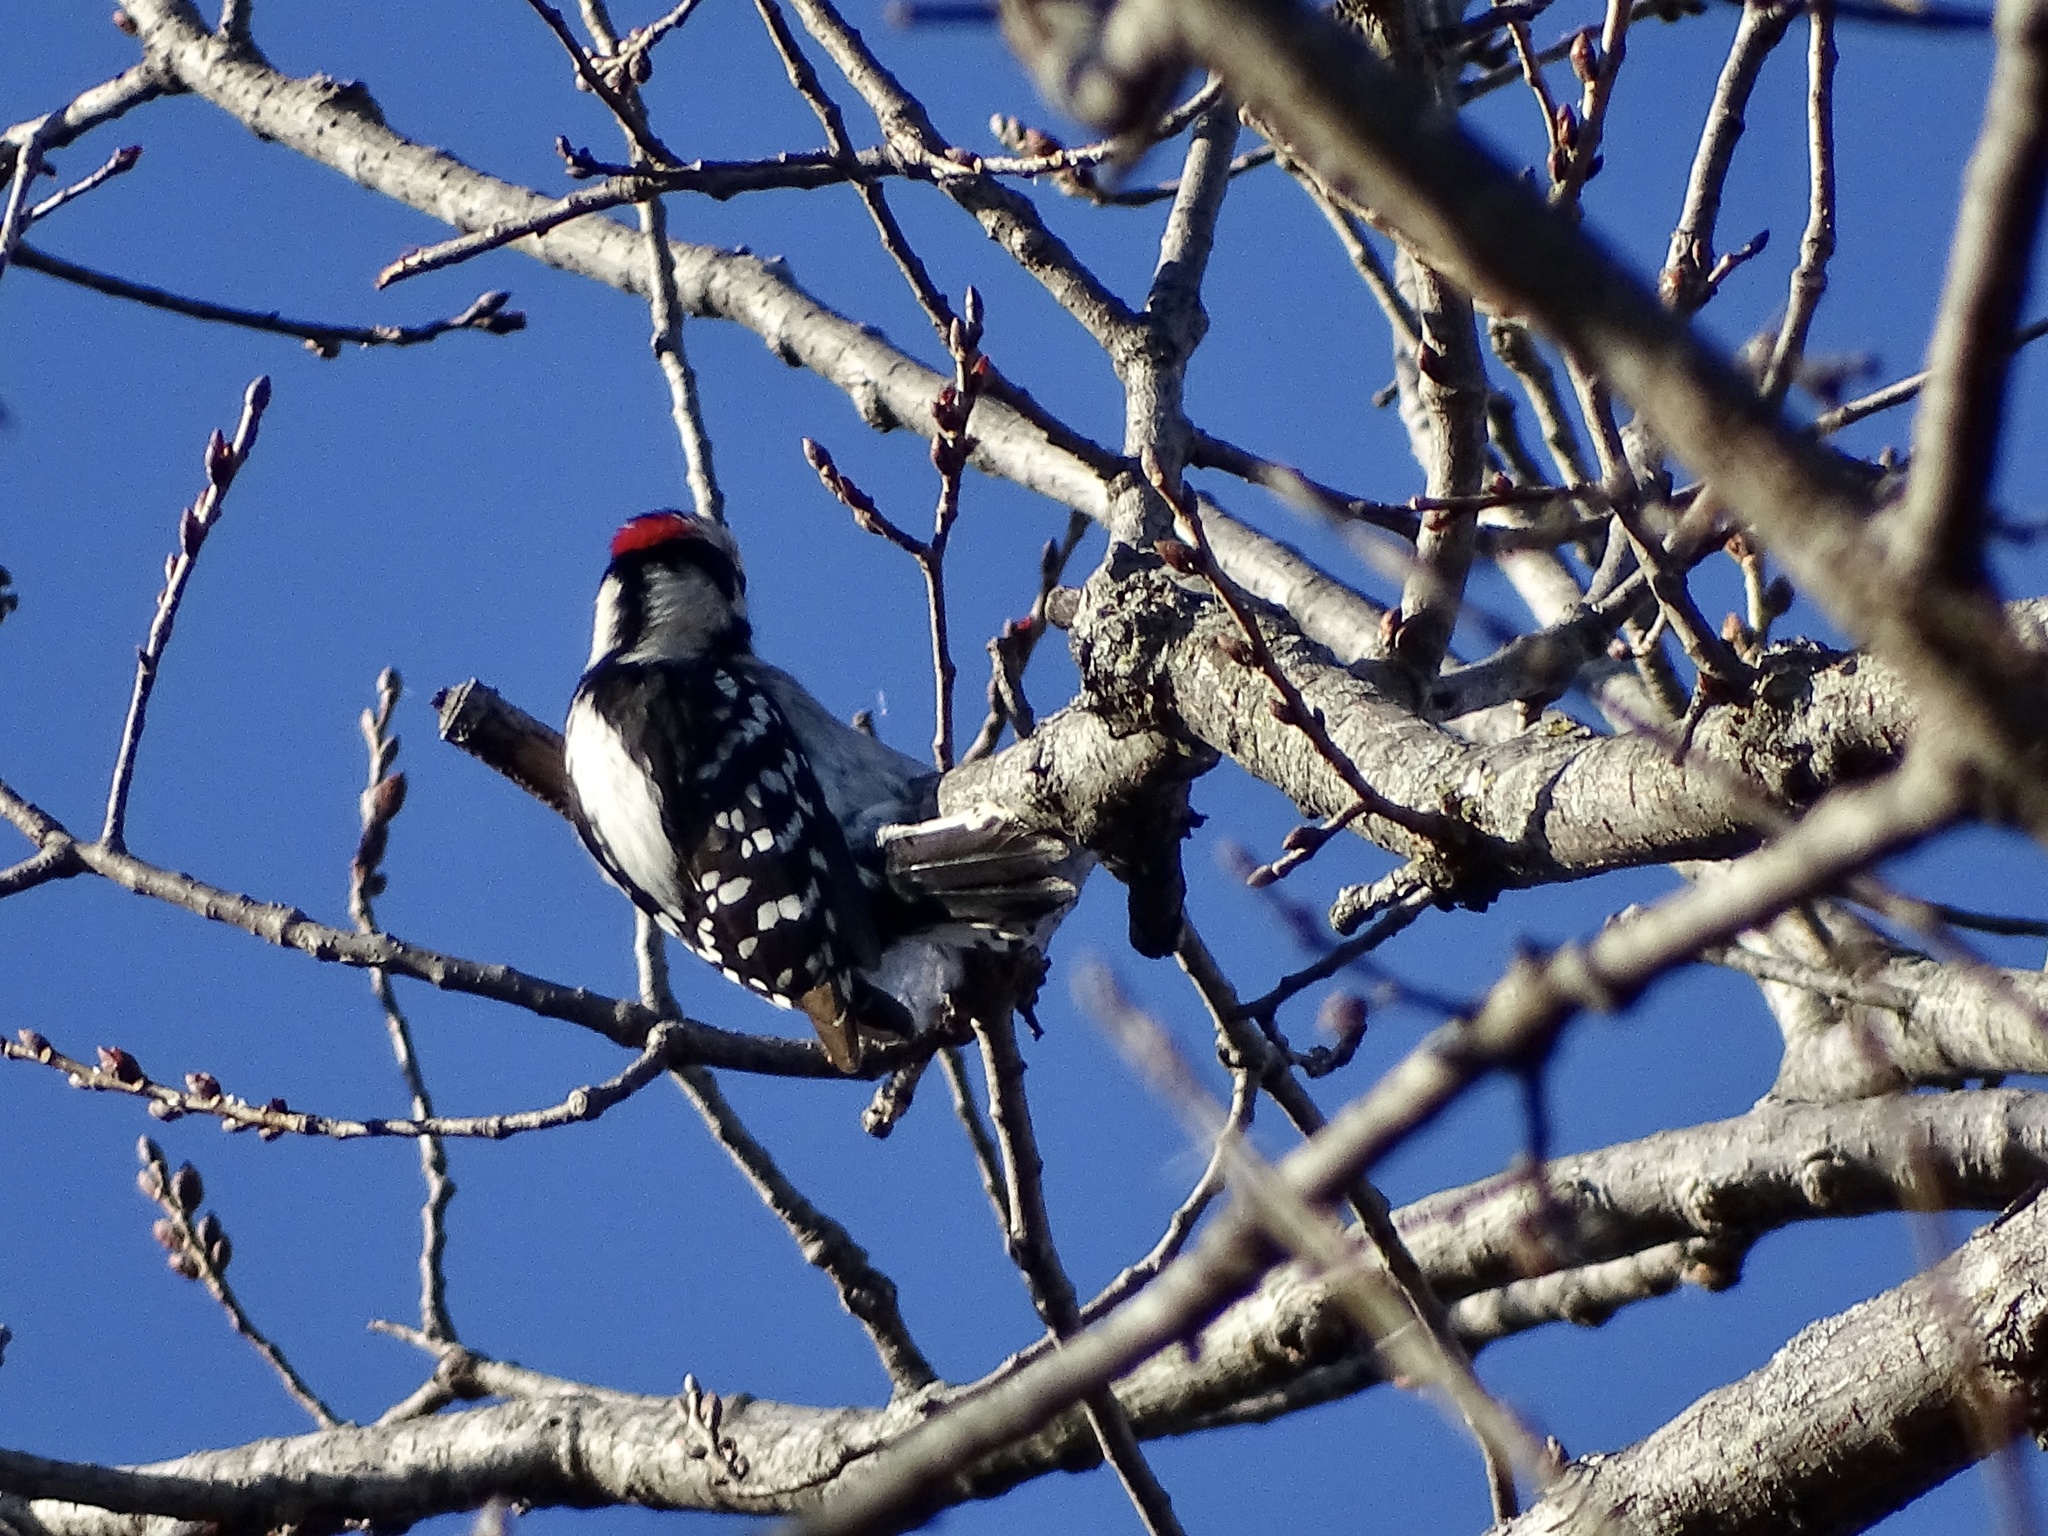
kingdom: Animalia
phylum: Chordata
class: Aves
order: Piciformes
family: Picidae
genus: Dryobates
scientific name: Dryobates pubescens
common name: Downy woodpecker
